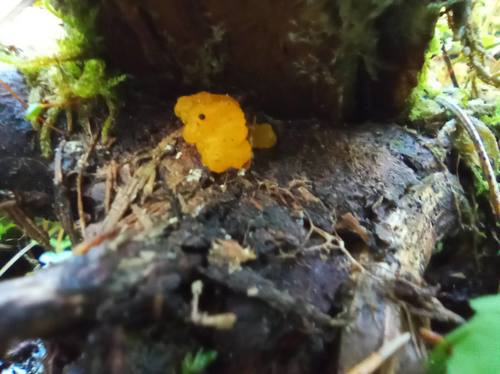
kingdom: Fungi
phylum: Basidiomycota
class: Dacrymycetes
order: Dacrymycetales
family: Dacrymycetaceae
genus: Dacrymyces
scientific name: Dacrymyces chrysospermus
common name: Orange jelly spot
